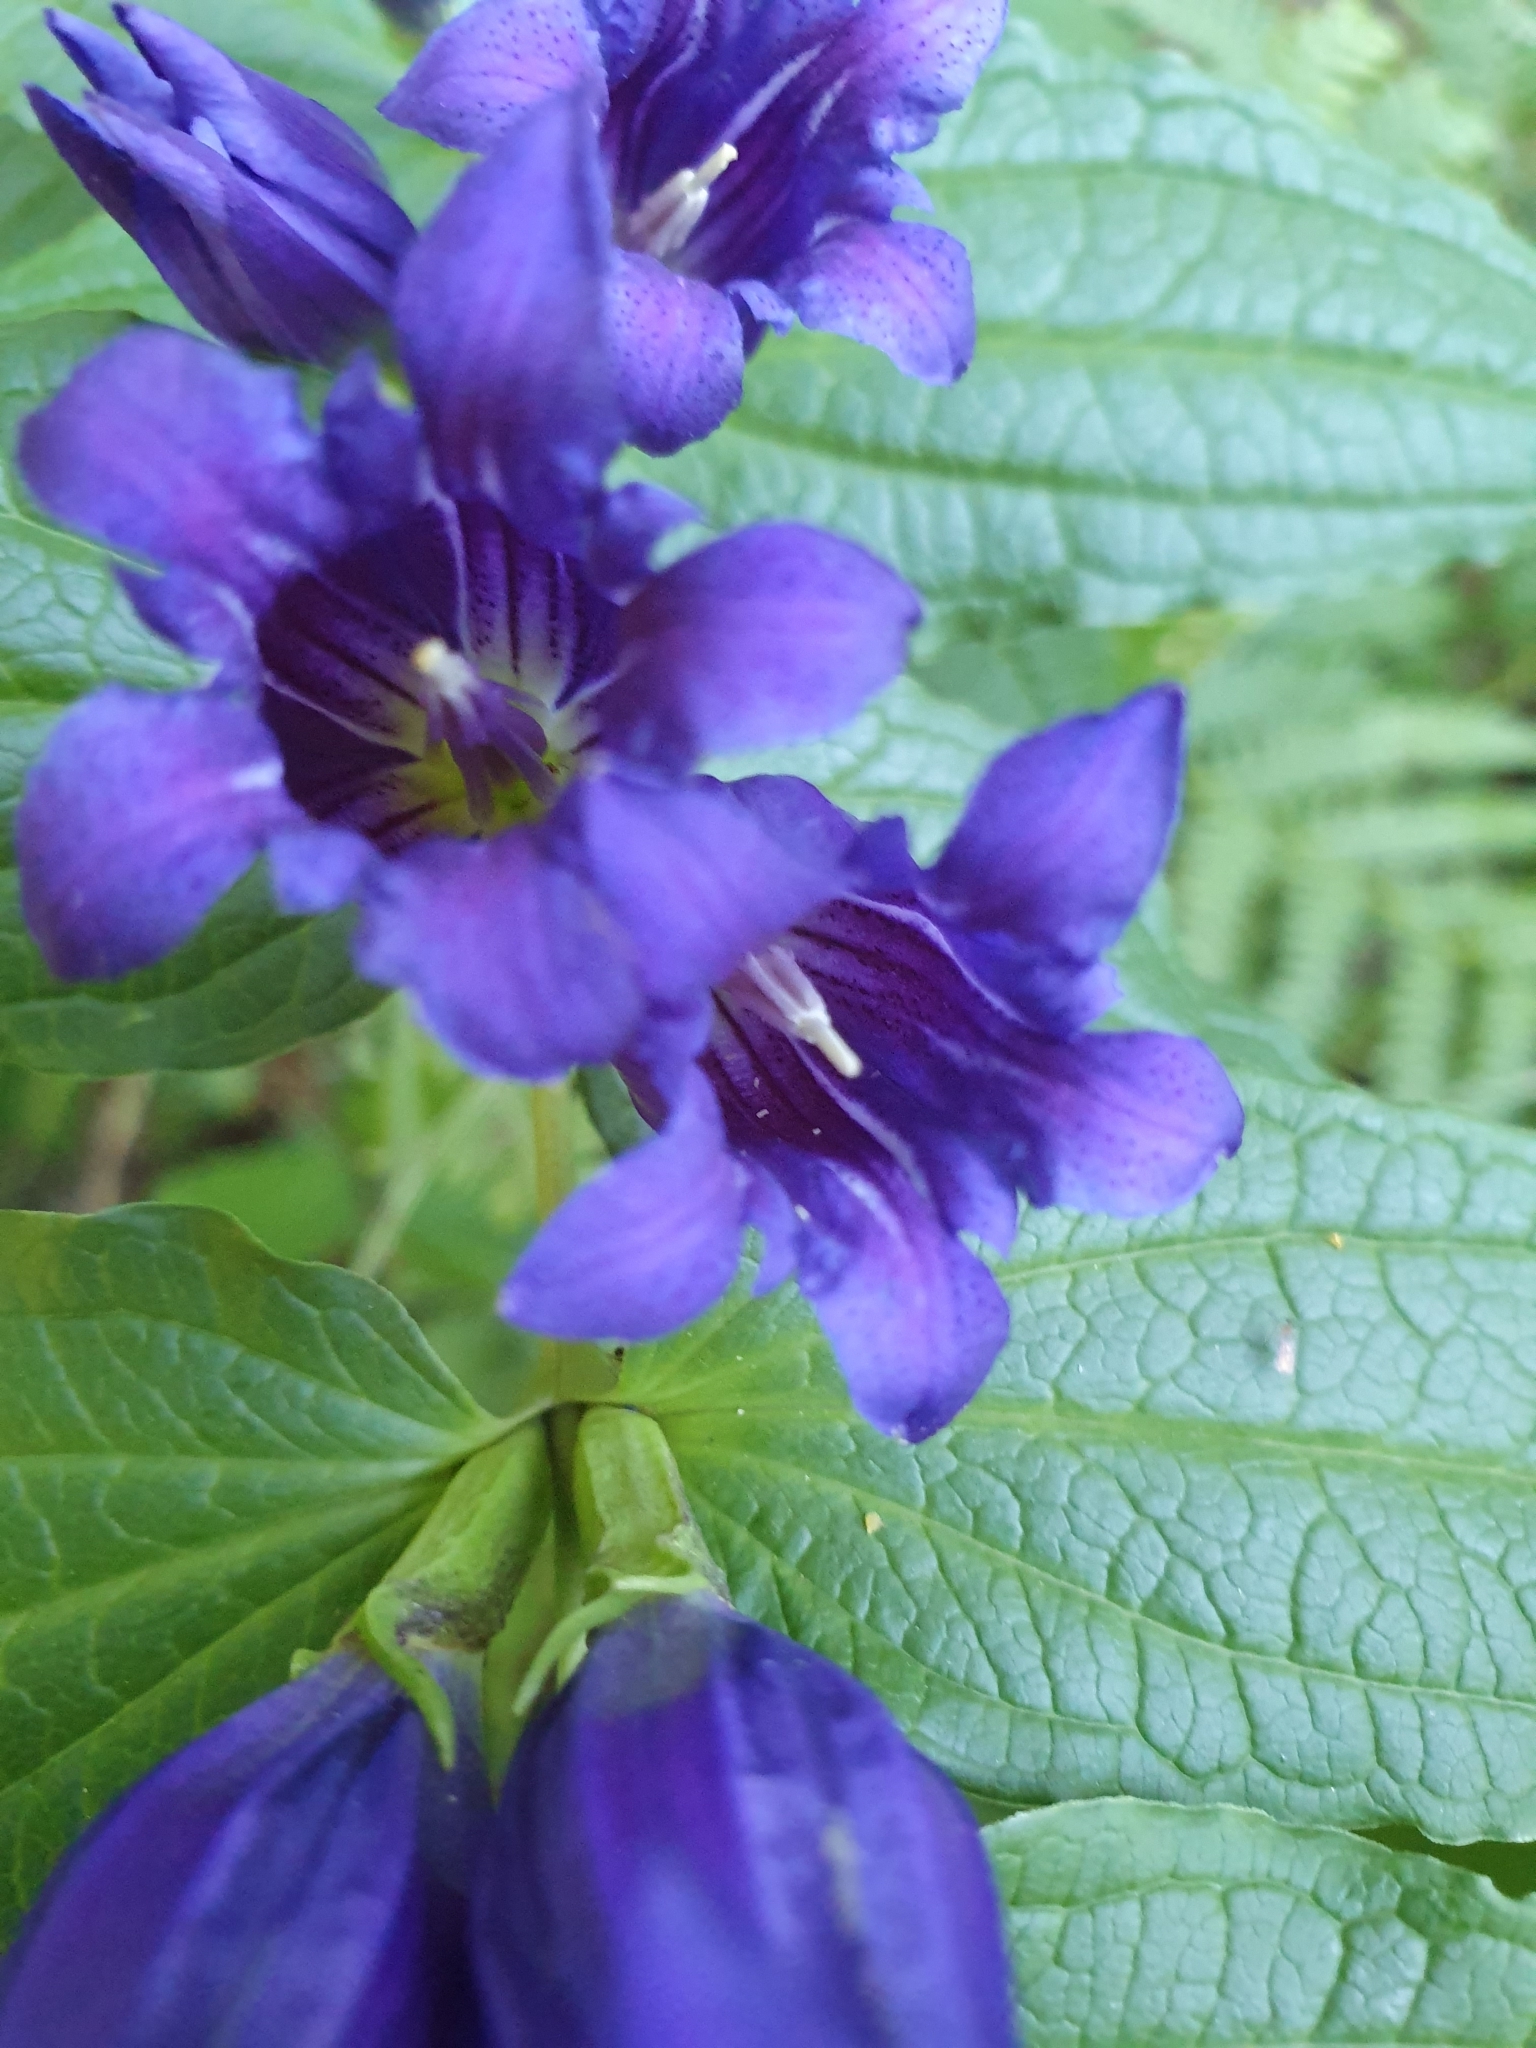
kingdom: Plantae
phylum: Tracheophyta
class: Magnoliopsida
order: Gentianales
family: Gentianaceae
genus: Gentiana
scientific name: Gentiana asclepiadea
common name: Willow gentian
